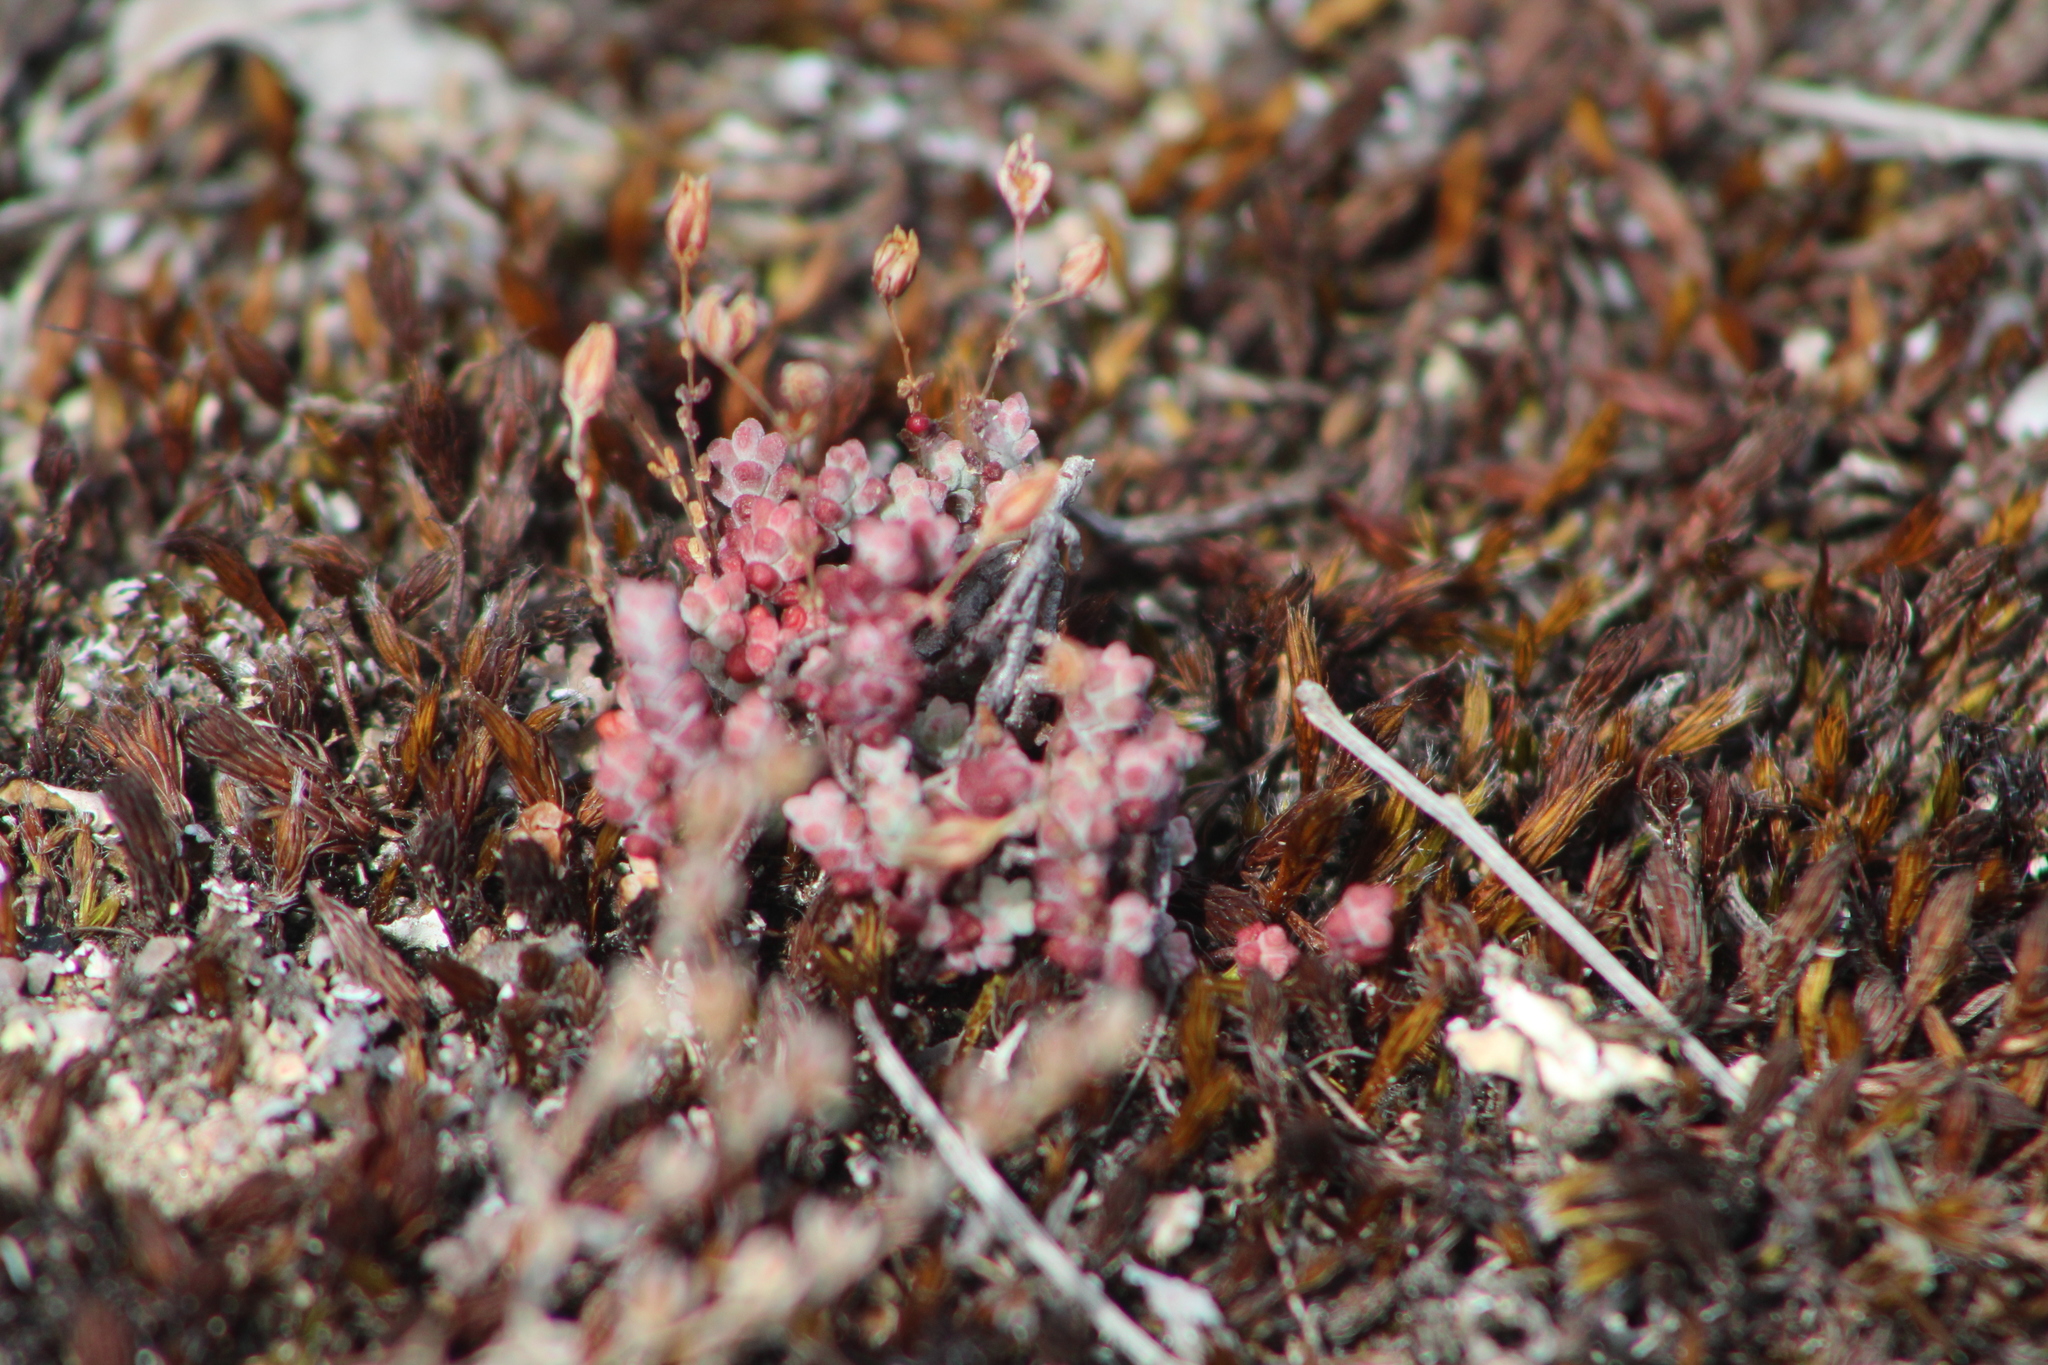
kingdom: Plantae
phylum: Tracheophyta
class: Magnoliopsida
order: Saxifragales
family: Crassulaceae
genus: Sedum
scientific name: Sedum brevifolium
